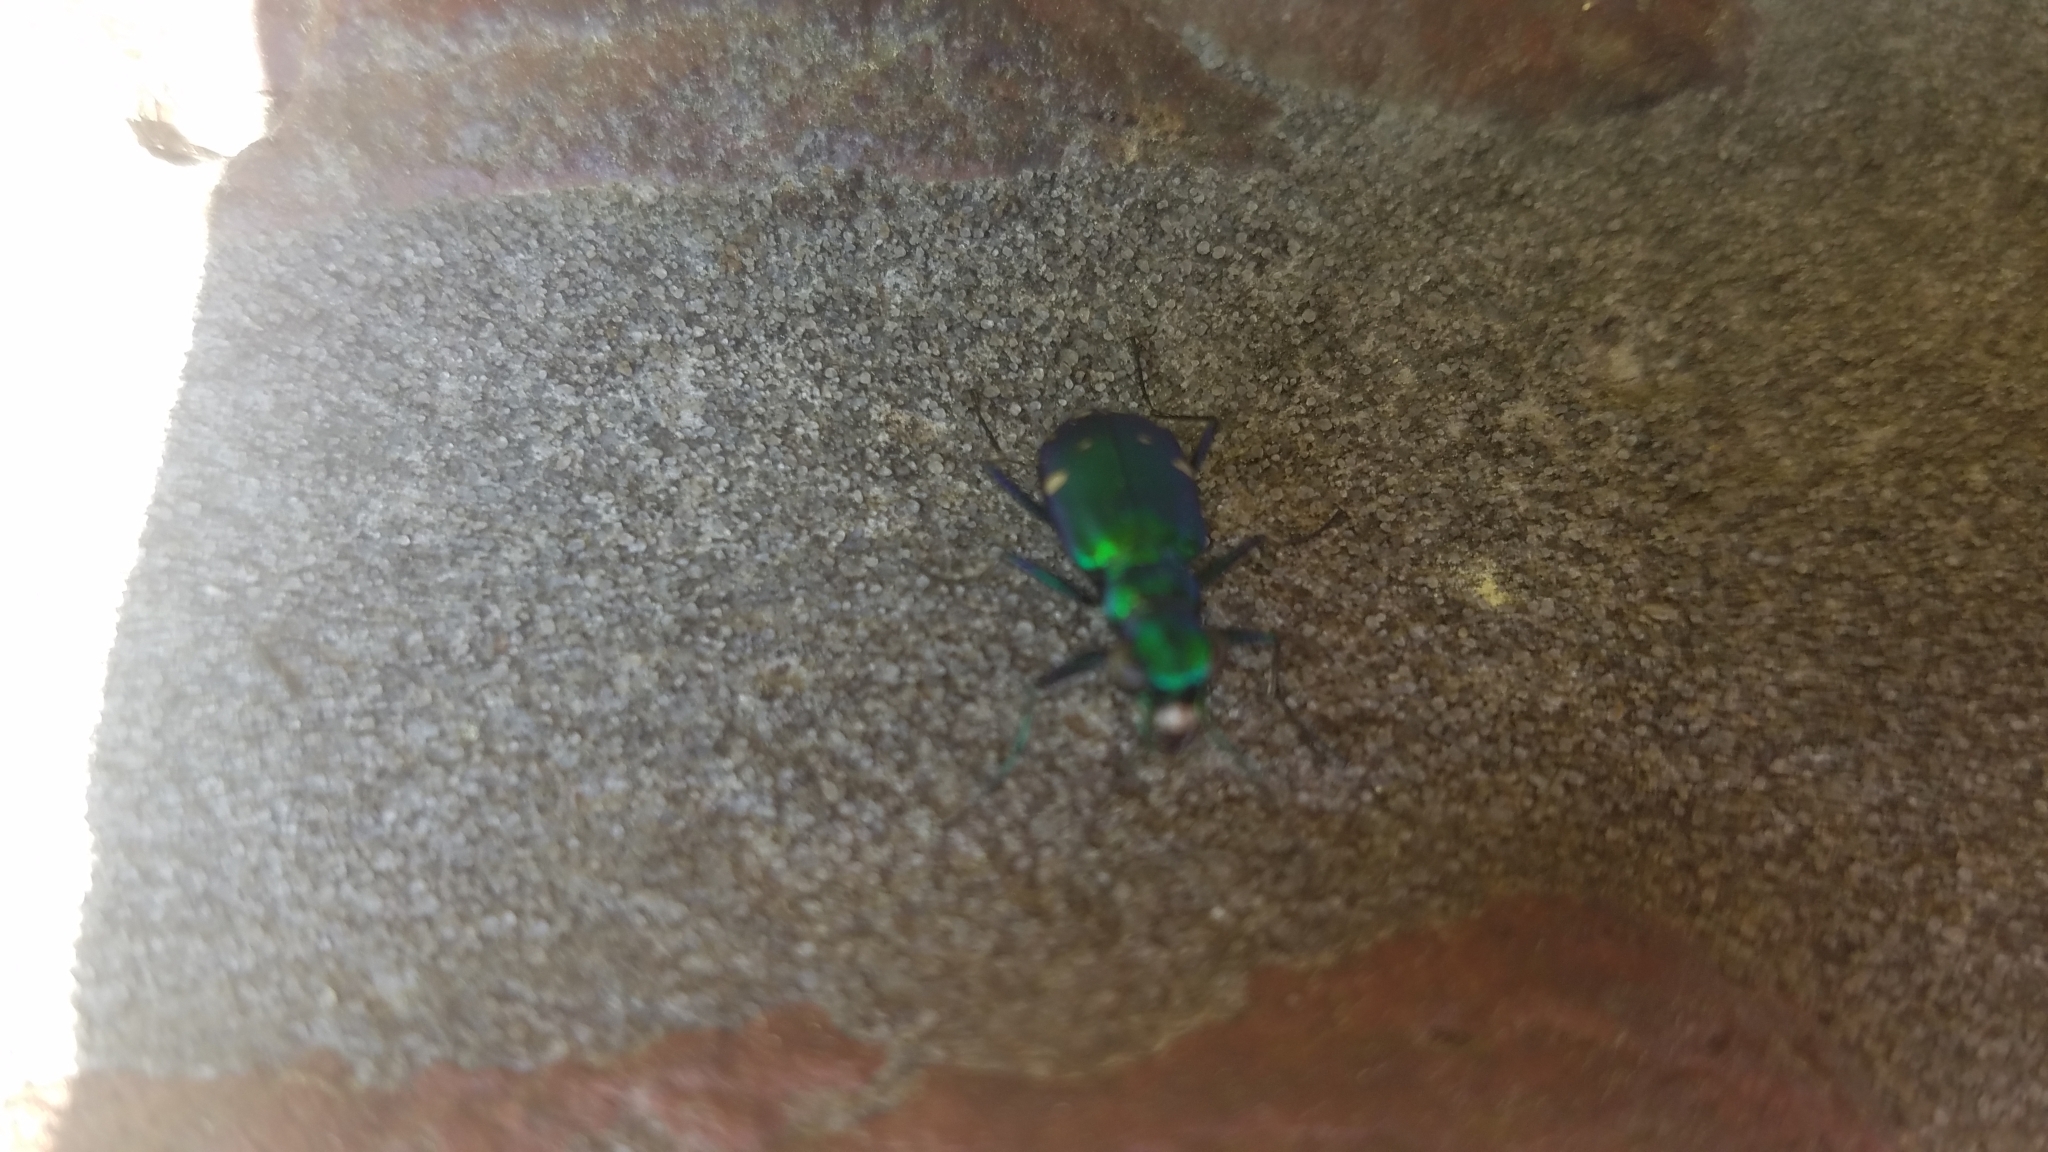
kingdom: Animalia
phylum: Arthropoda
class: Insecta
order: Coleoptera
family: Carabidae
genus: Cicindela
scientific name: Cicindela sexguttata
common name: Six-spotted tiger beetle
